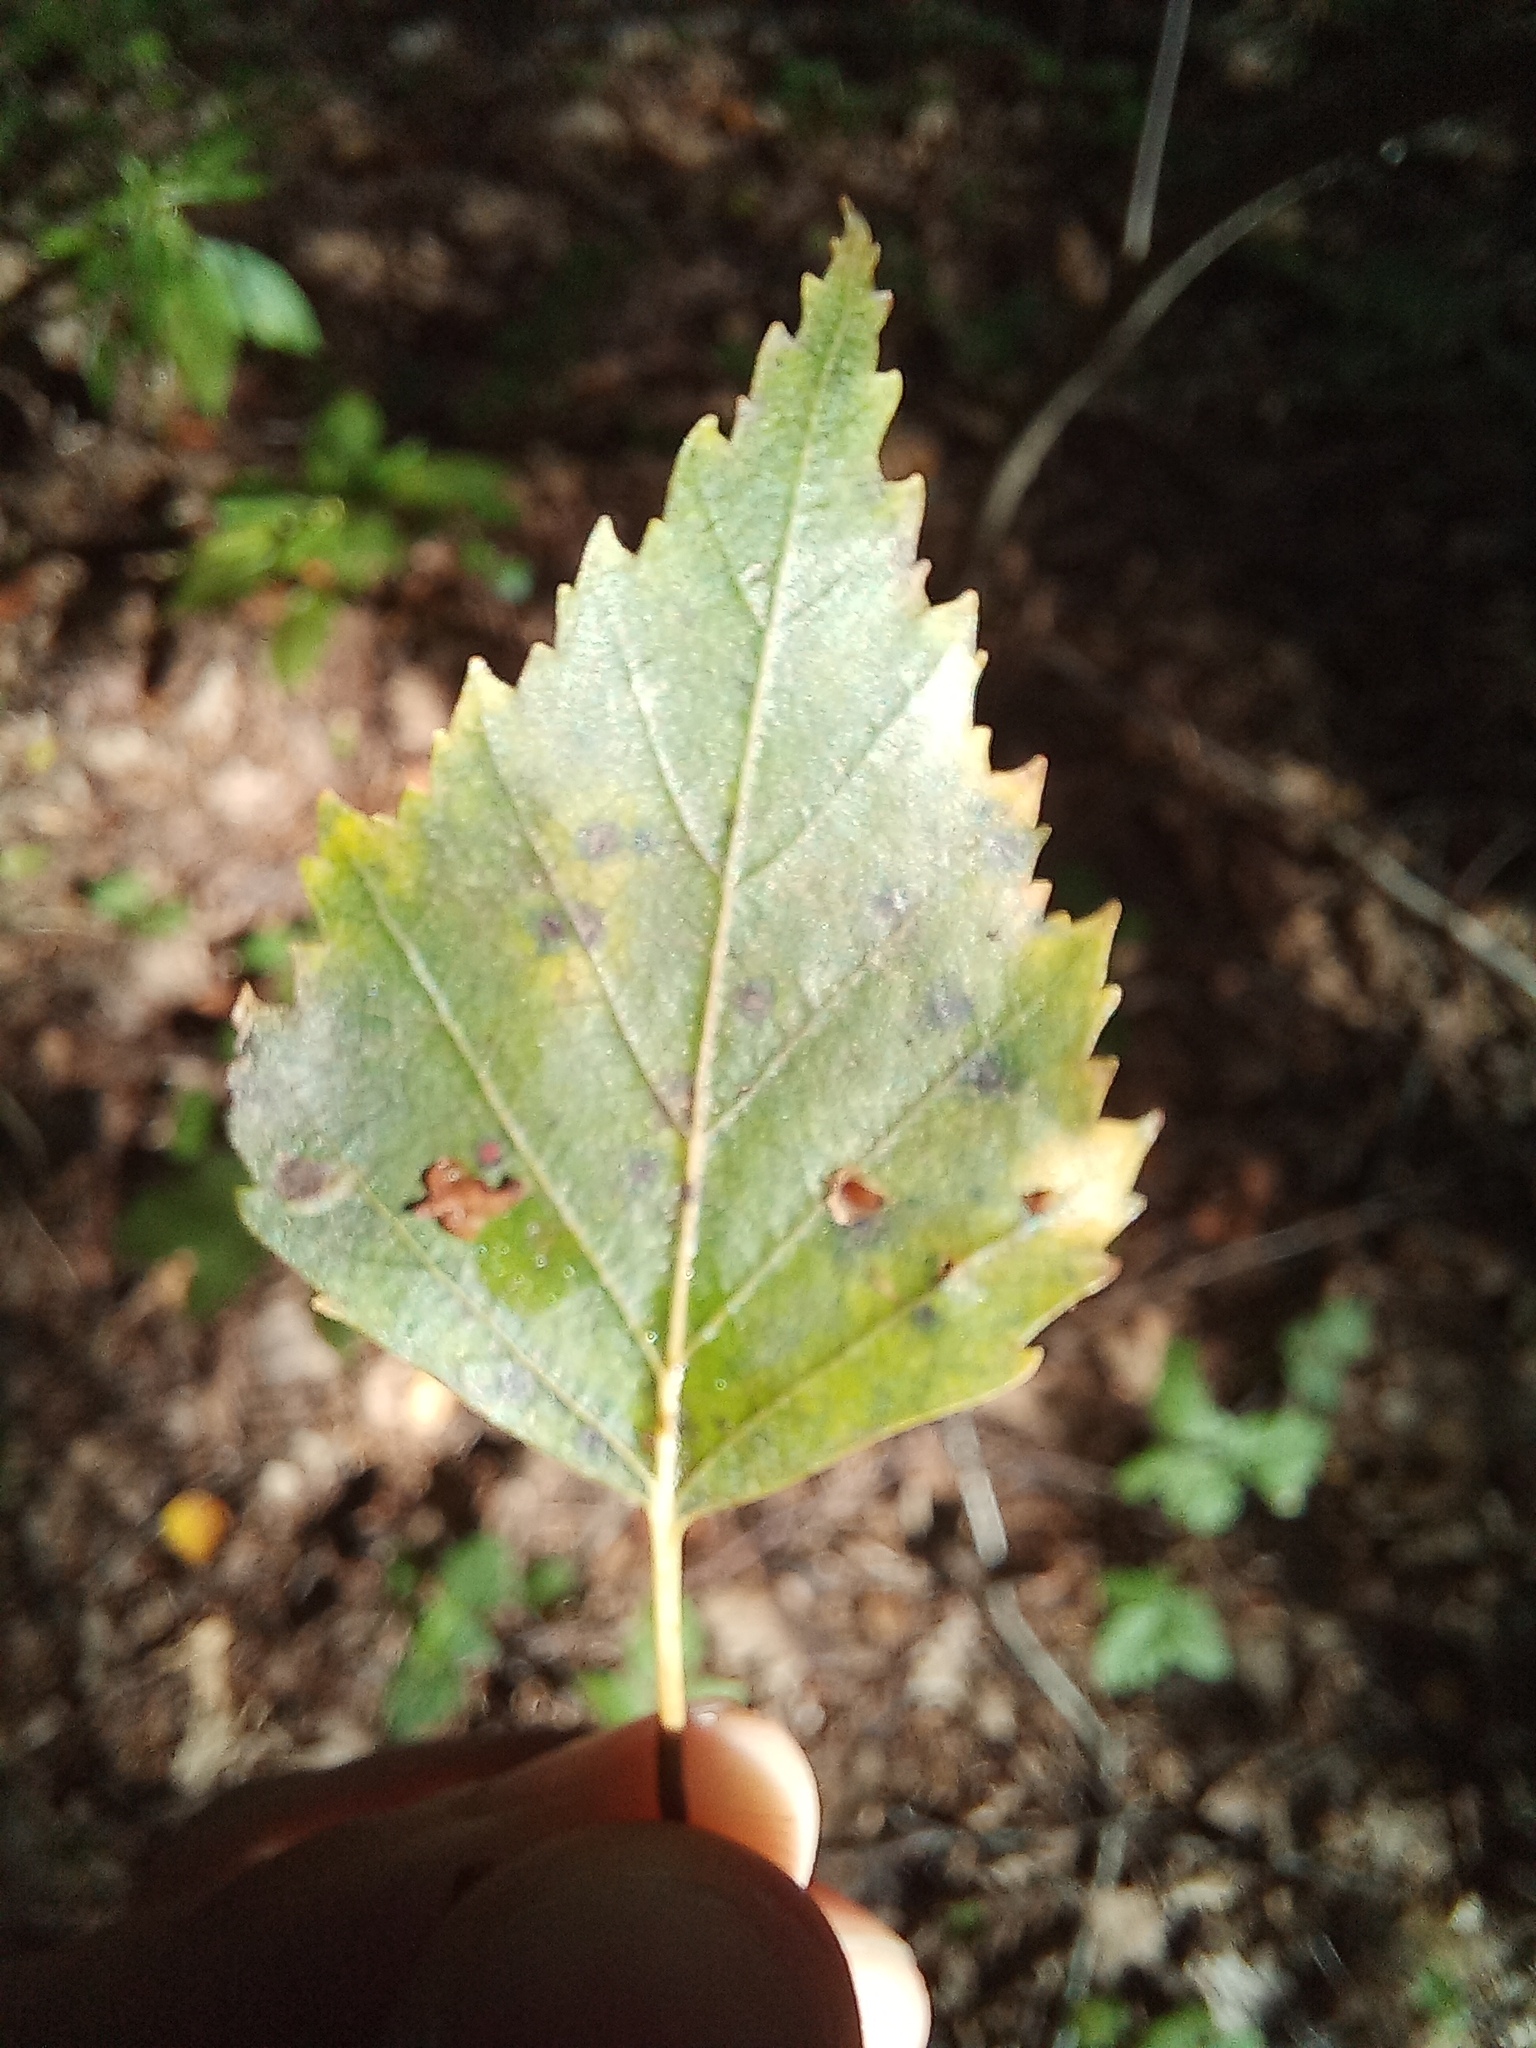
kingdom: Plantae
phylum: Tracheophyta
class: Magnoliopsida
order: Fagales
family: Betulaceae
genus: Betula
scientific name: Betula pendula
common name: Silver birch
